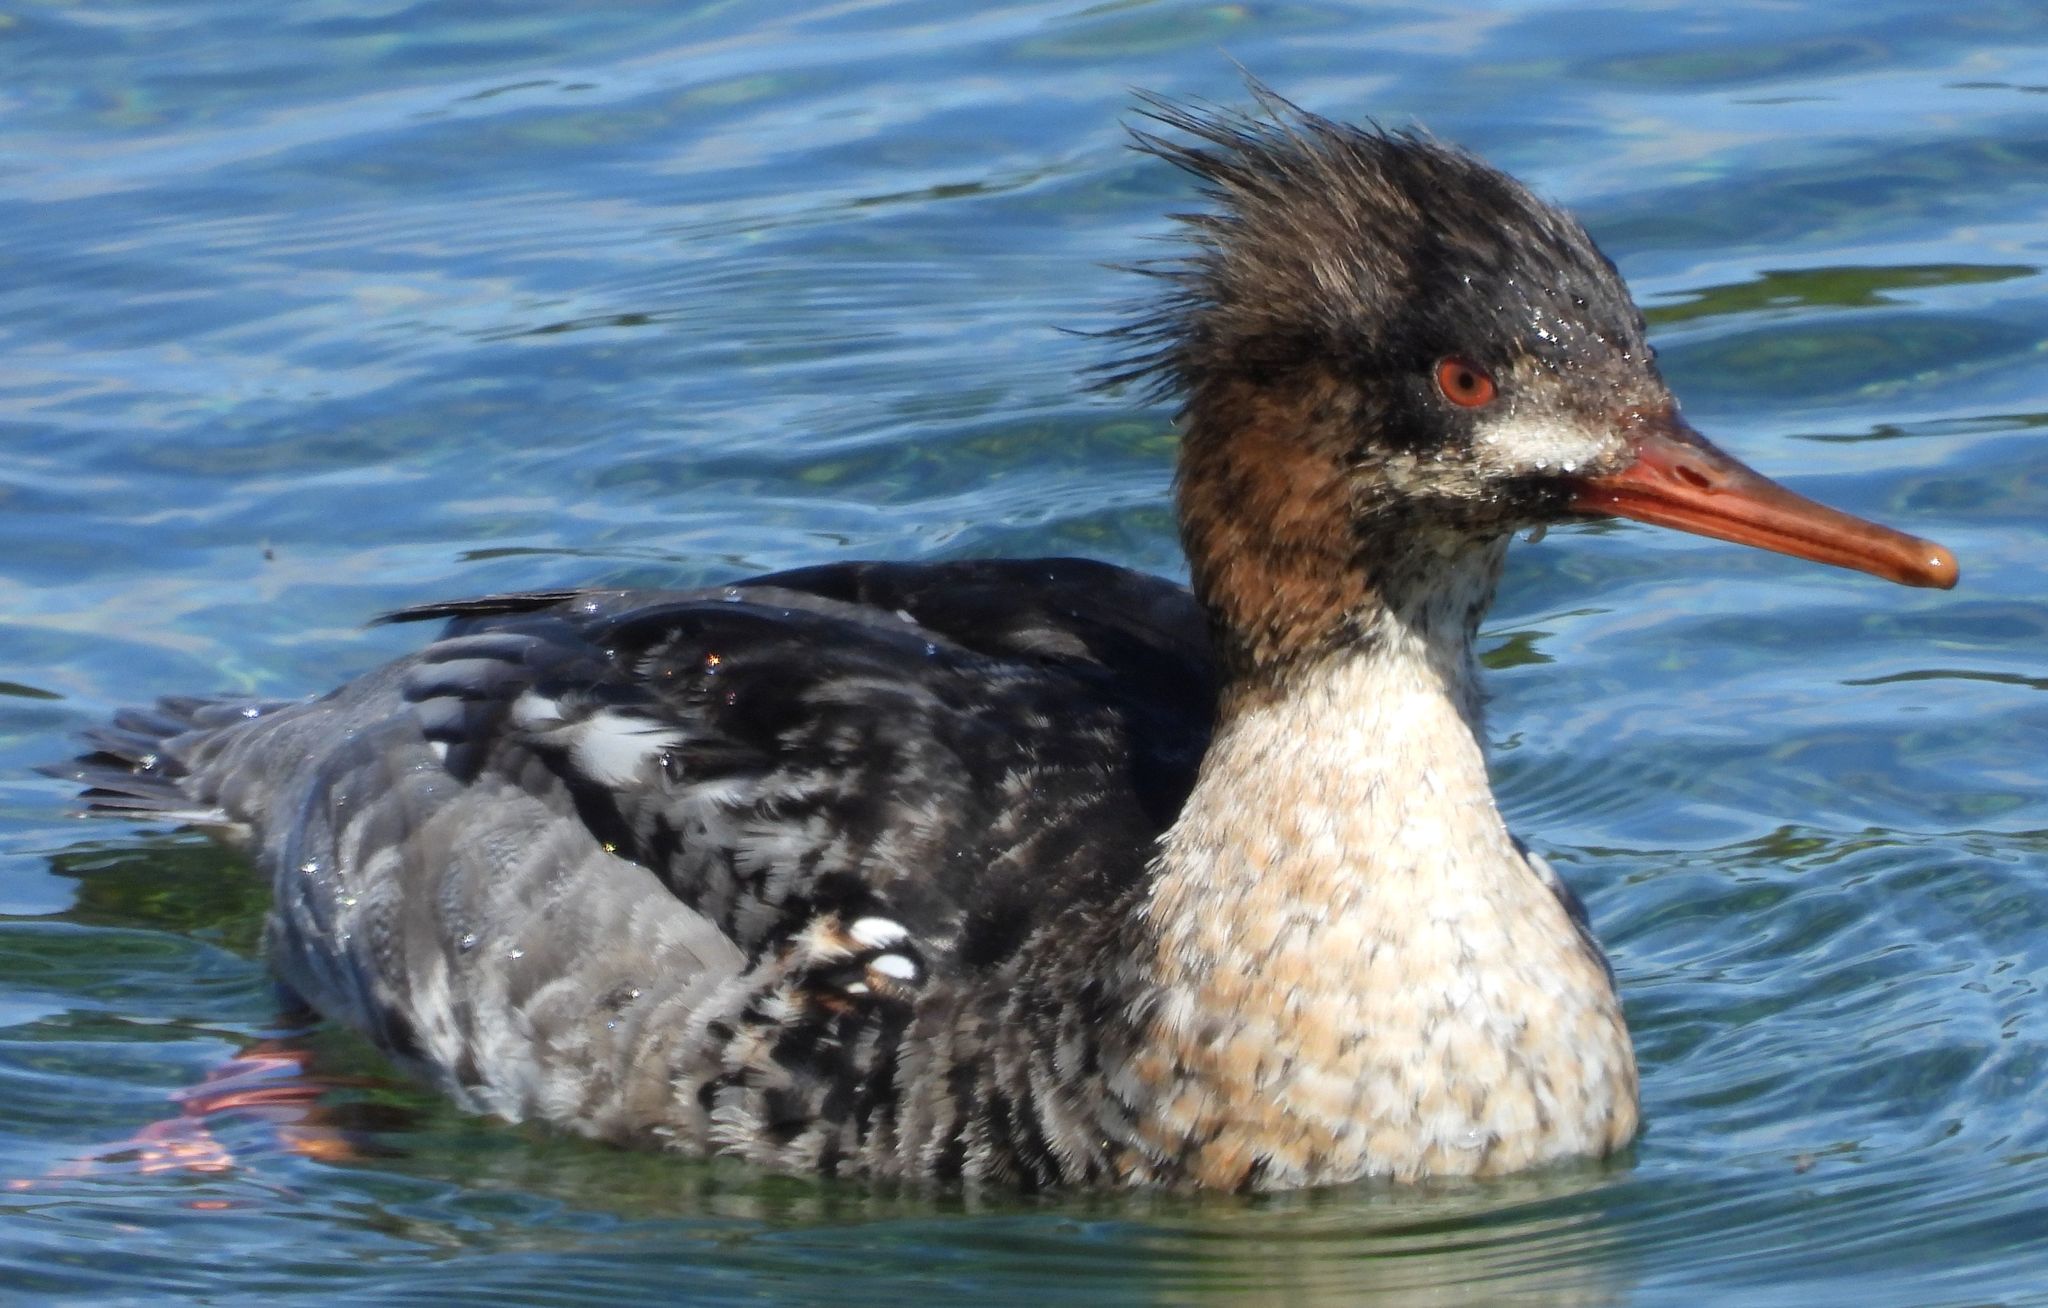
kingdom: Animalia
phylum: Chordata
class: Aves
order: Anseriformes
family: Anatidae
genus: Mergus
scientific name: Mergus serrator
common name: Red-breasted merganser
